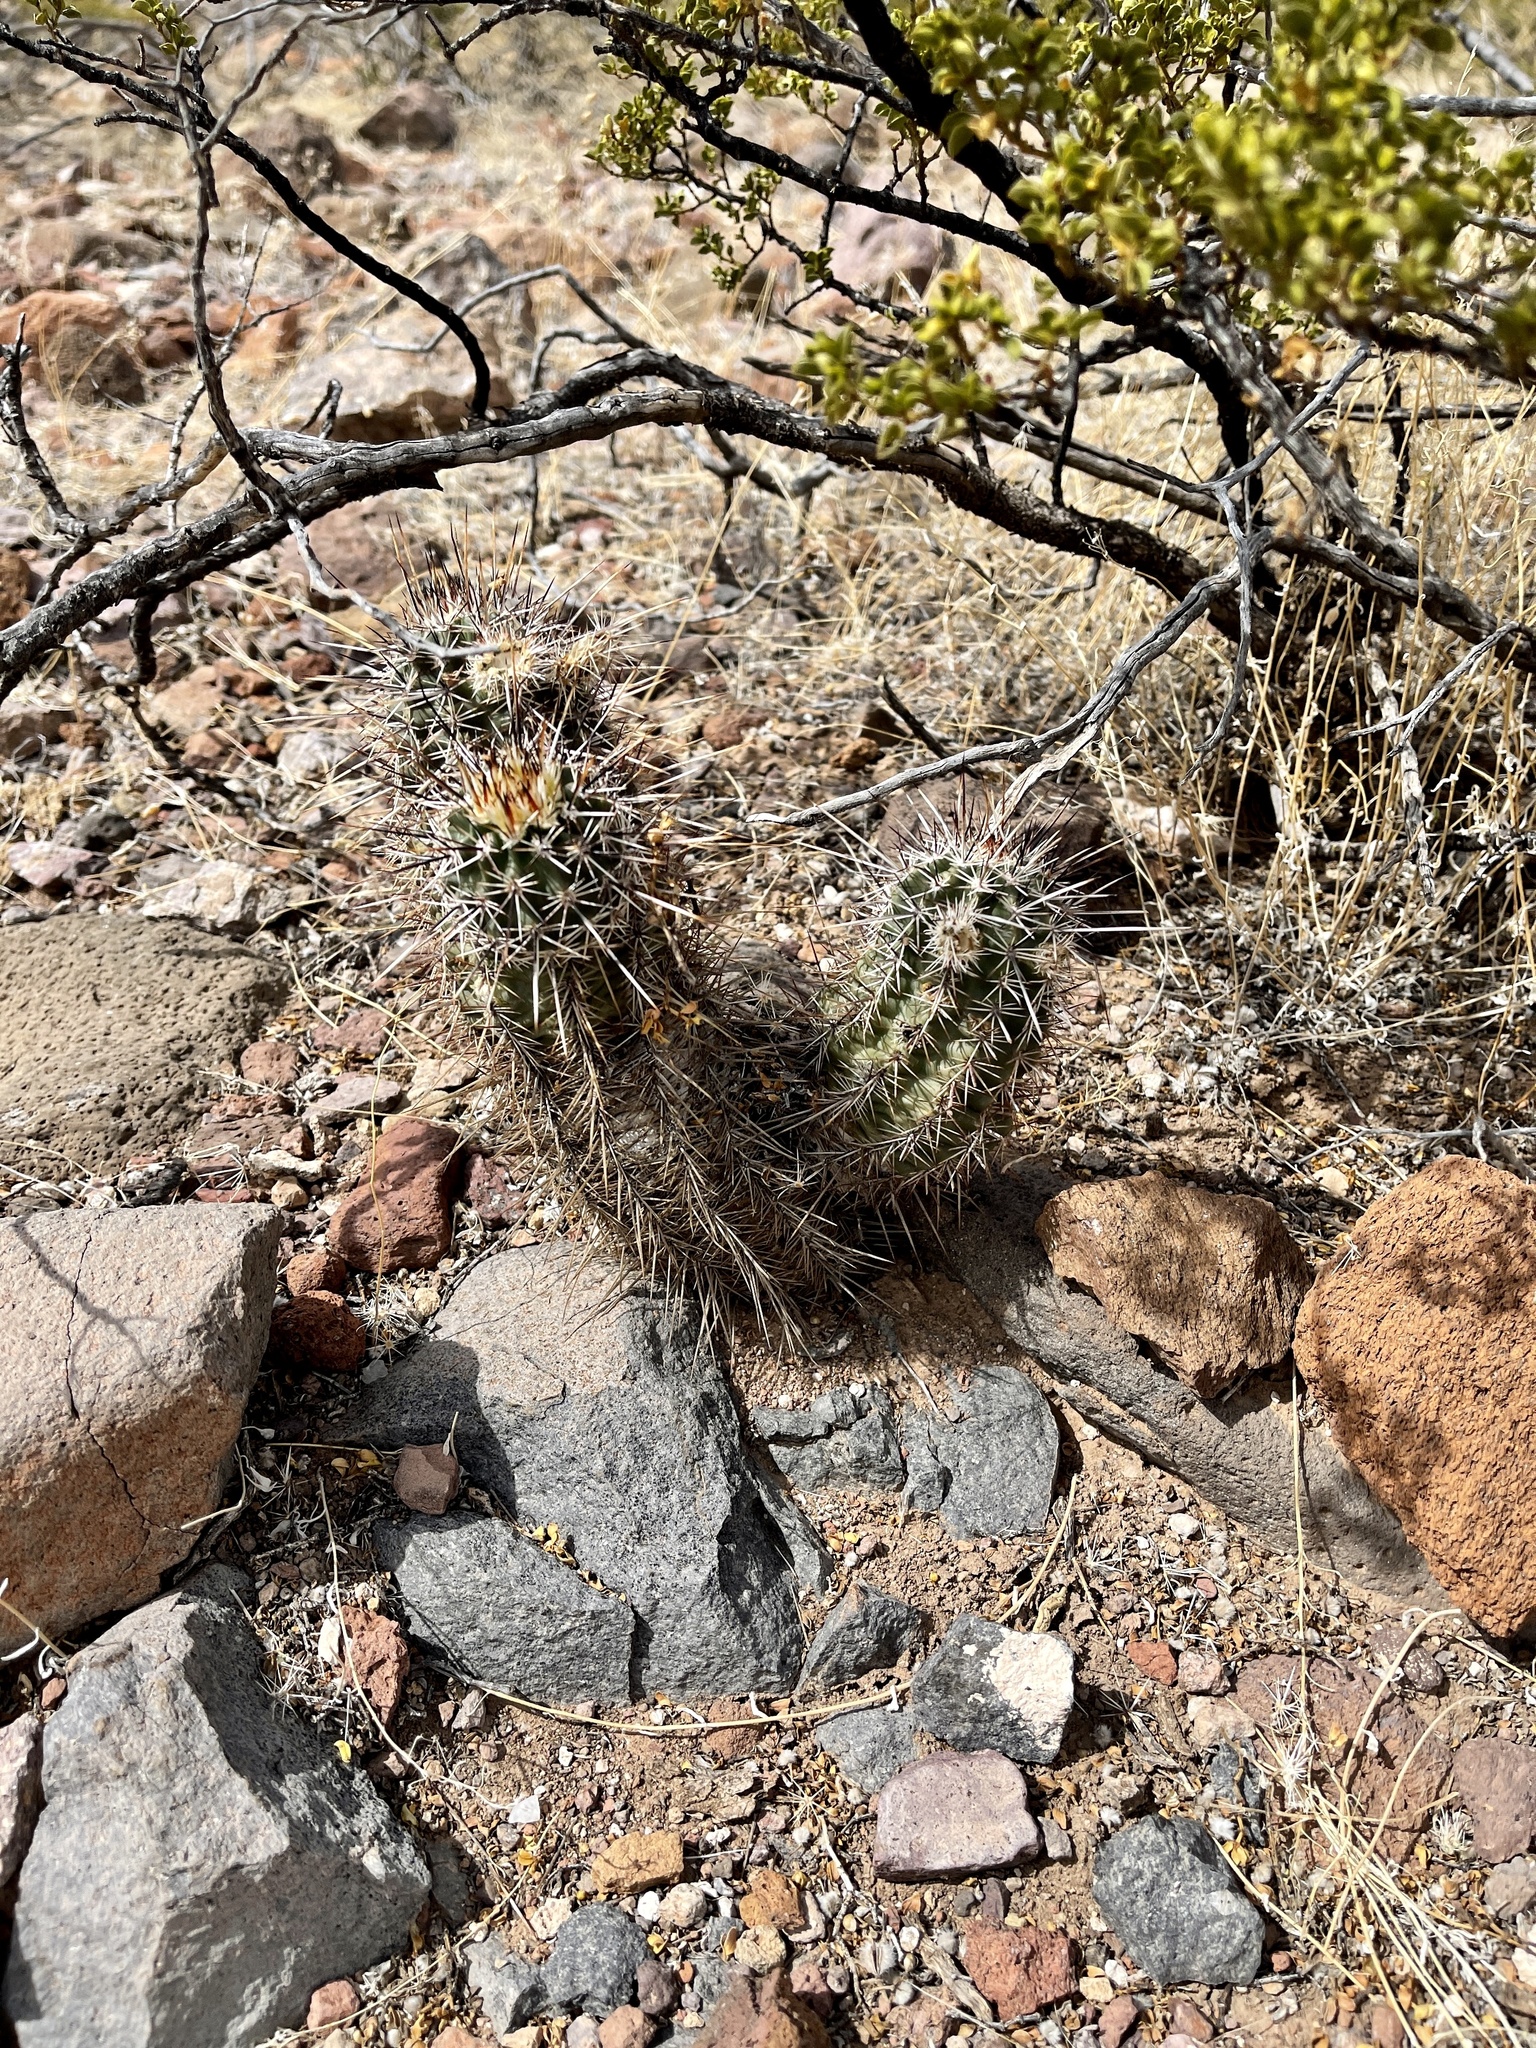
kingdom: Plantae
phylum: Tracheophyta
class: Magnoliopsida
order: Caryophyllales
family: Cactaceae
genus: Echinocereus
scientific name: Echinocereus fasciculatus
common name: Bundle hedgehog
